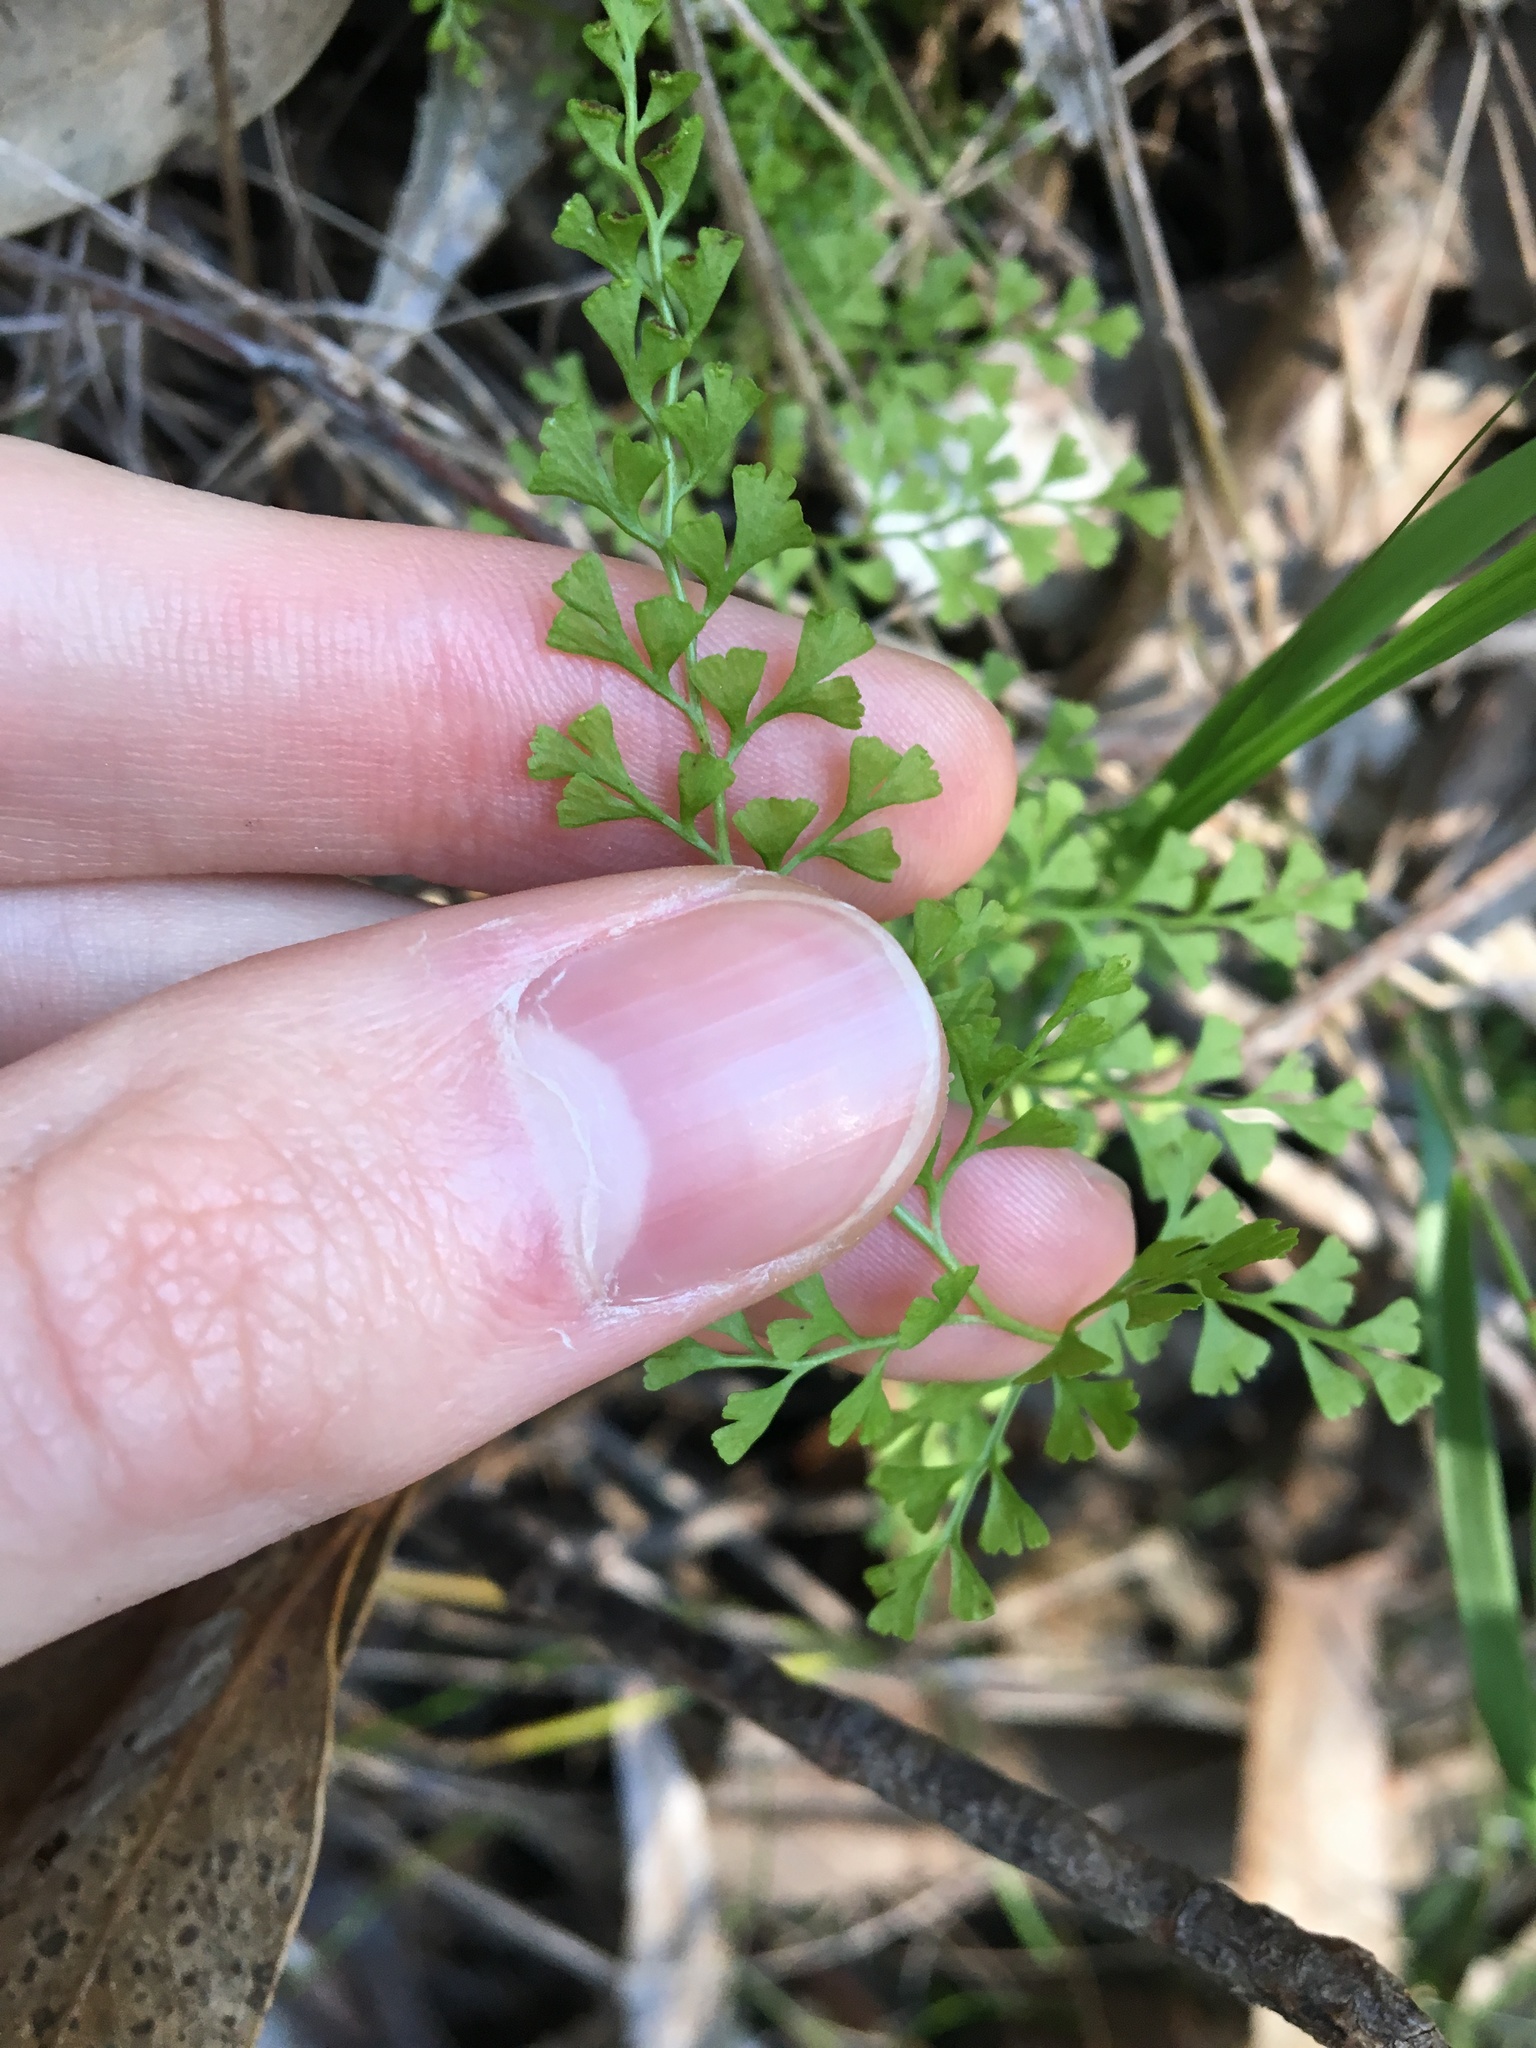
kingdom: Plantae
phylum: Tracheophyta
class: Polypodiopsida
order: Polypodiales
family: Lindsaeaceae
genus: Lindsaea
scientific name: Lindsaea microphylla
